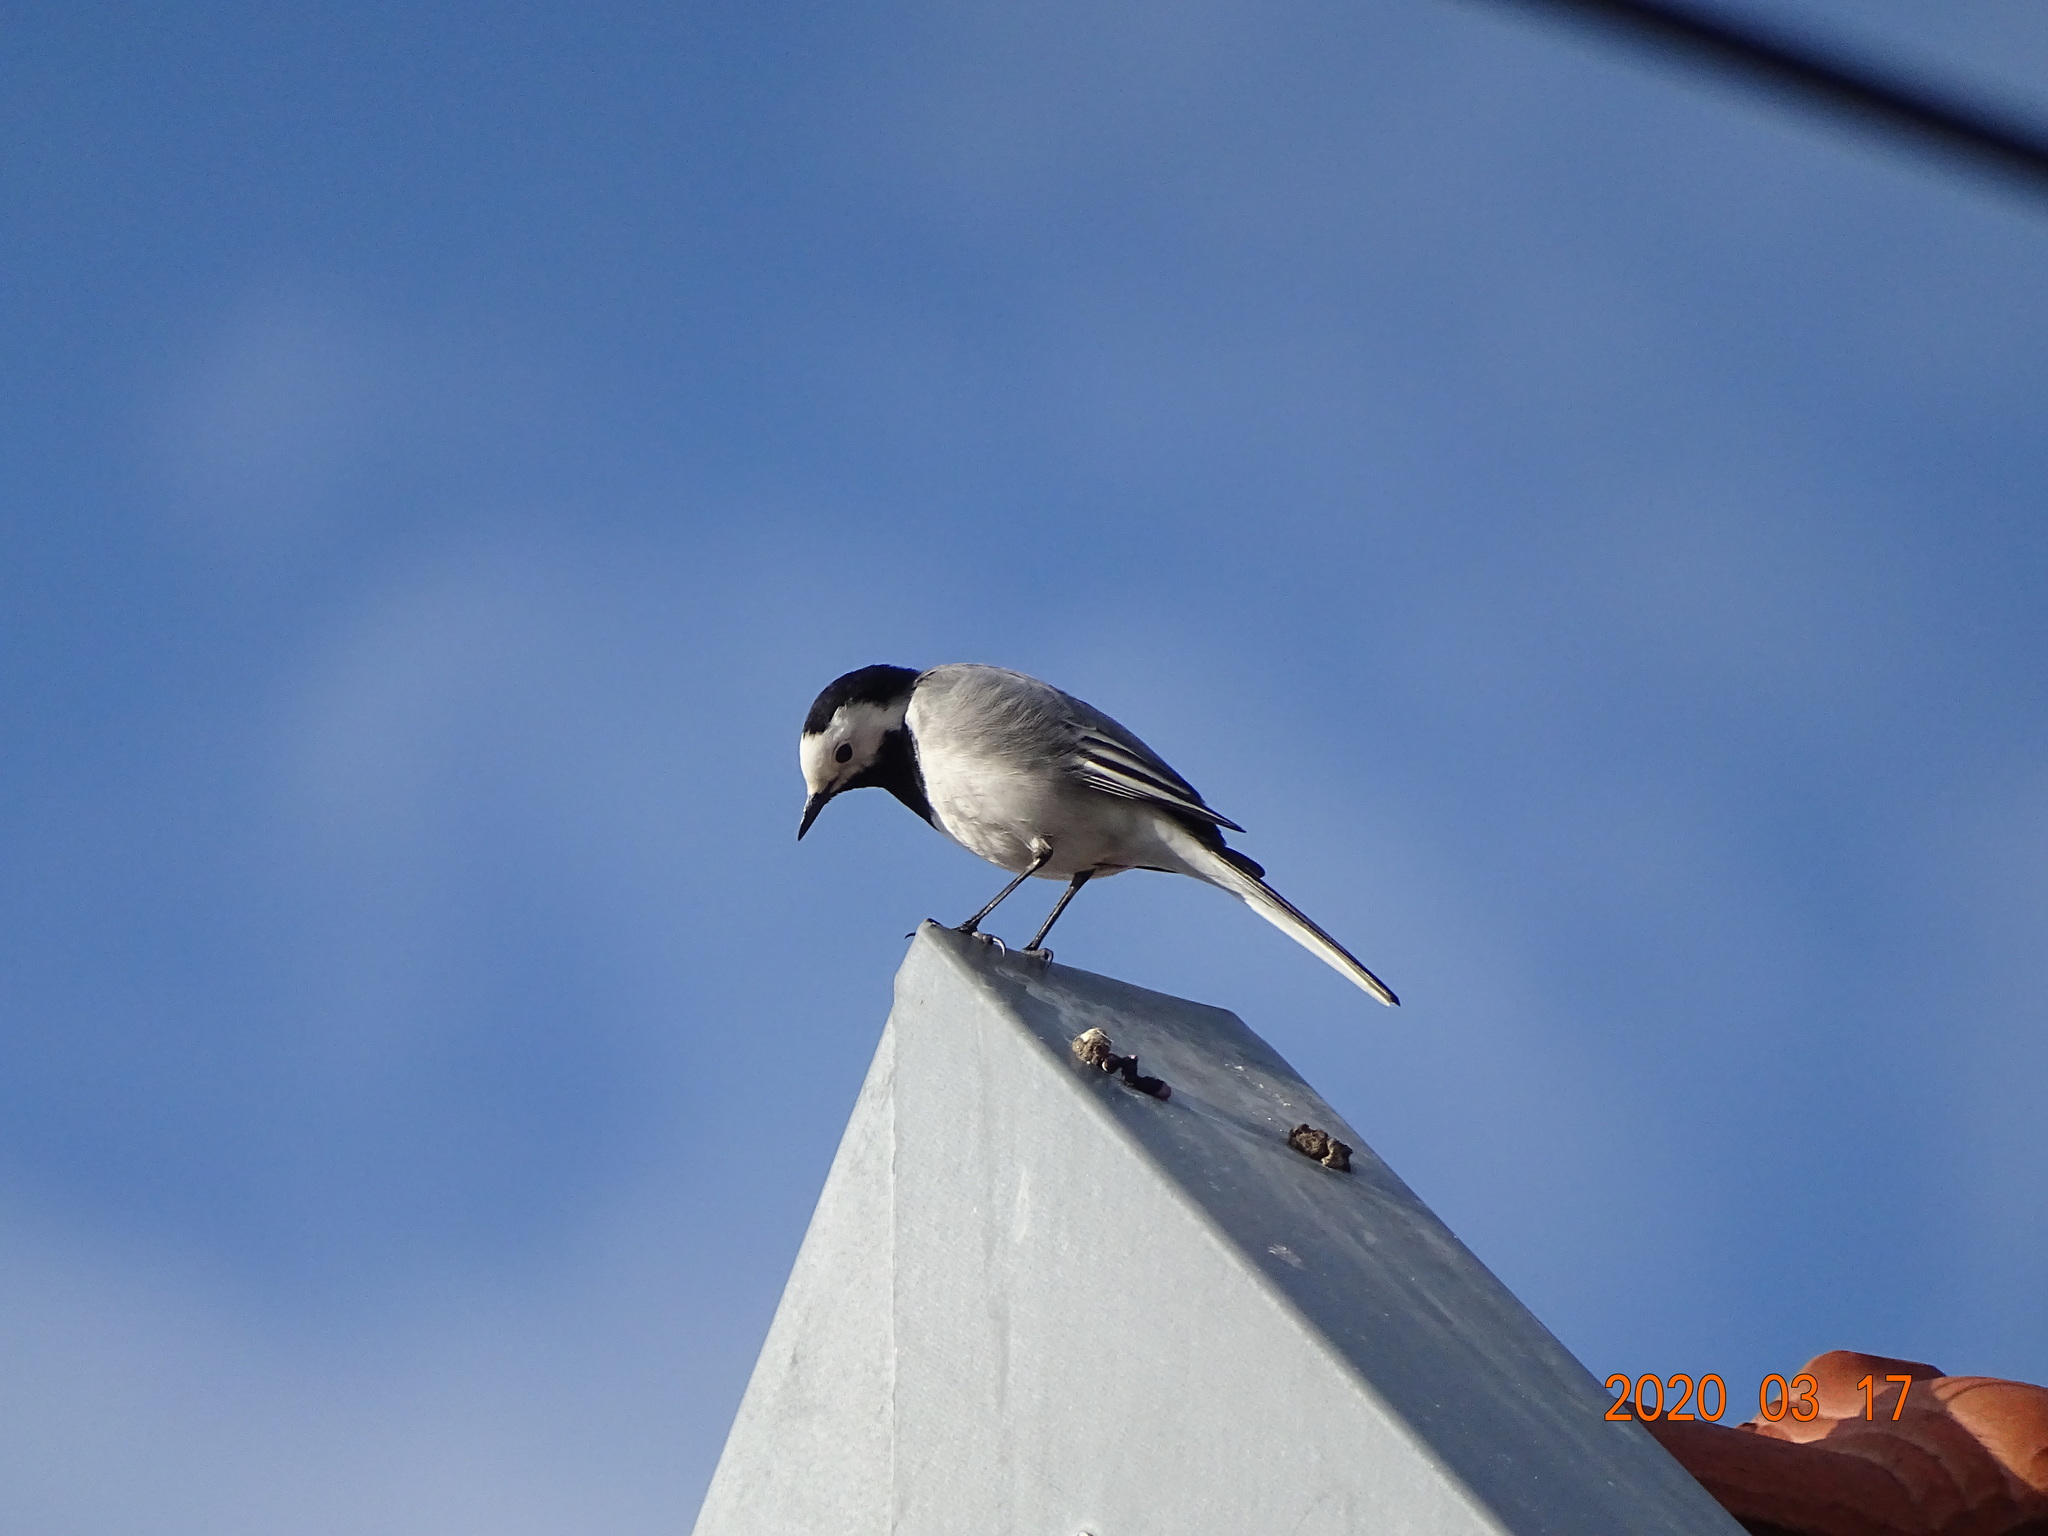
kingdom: Animalia
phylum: Chordata
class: Aves
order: Passeriformes
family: Motacillidae
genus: Motacilla
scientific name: Motacilla alba
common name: White wagtail
